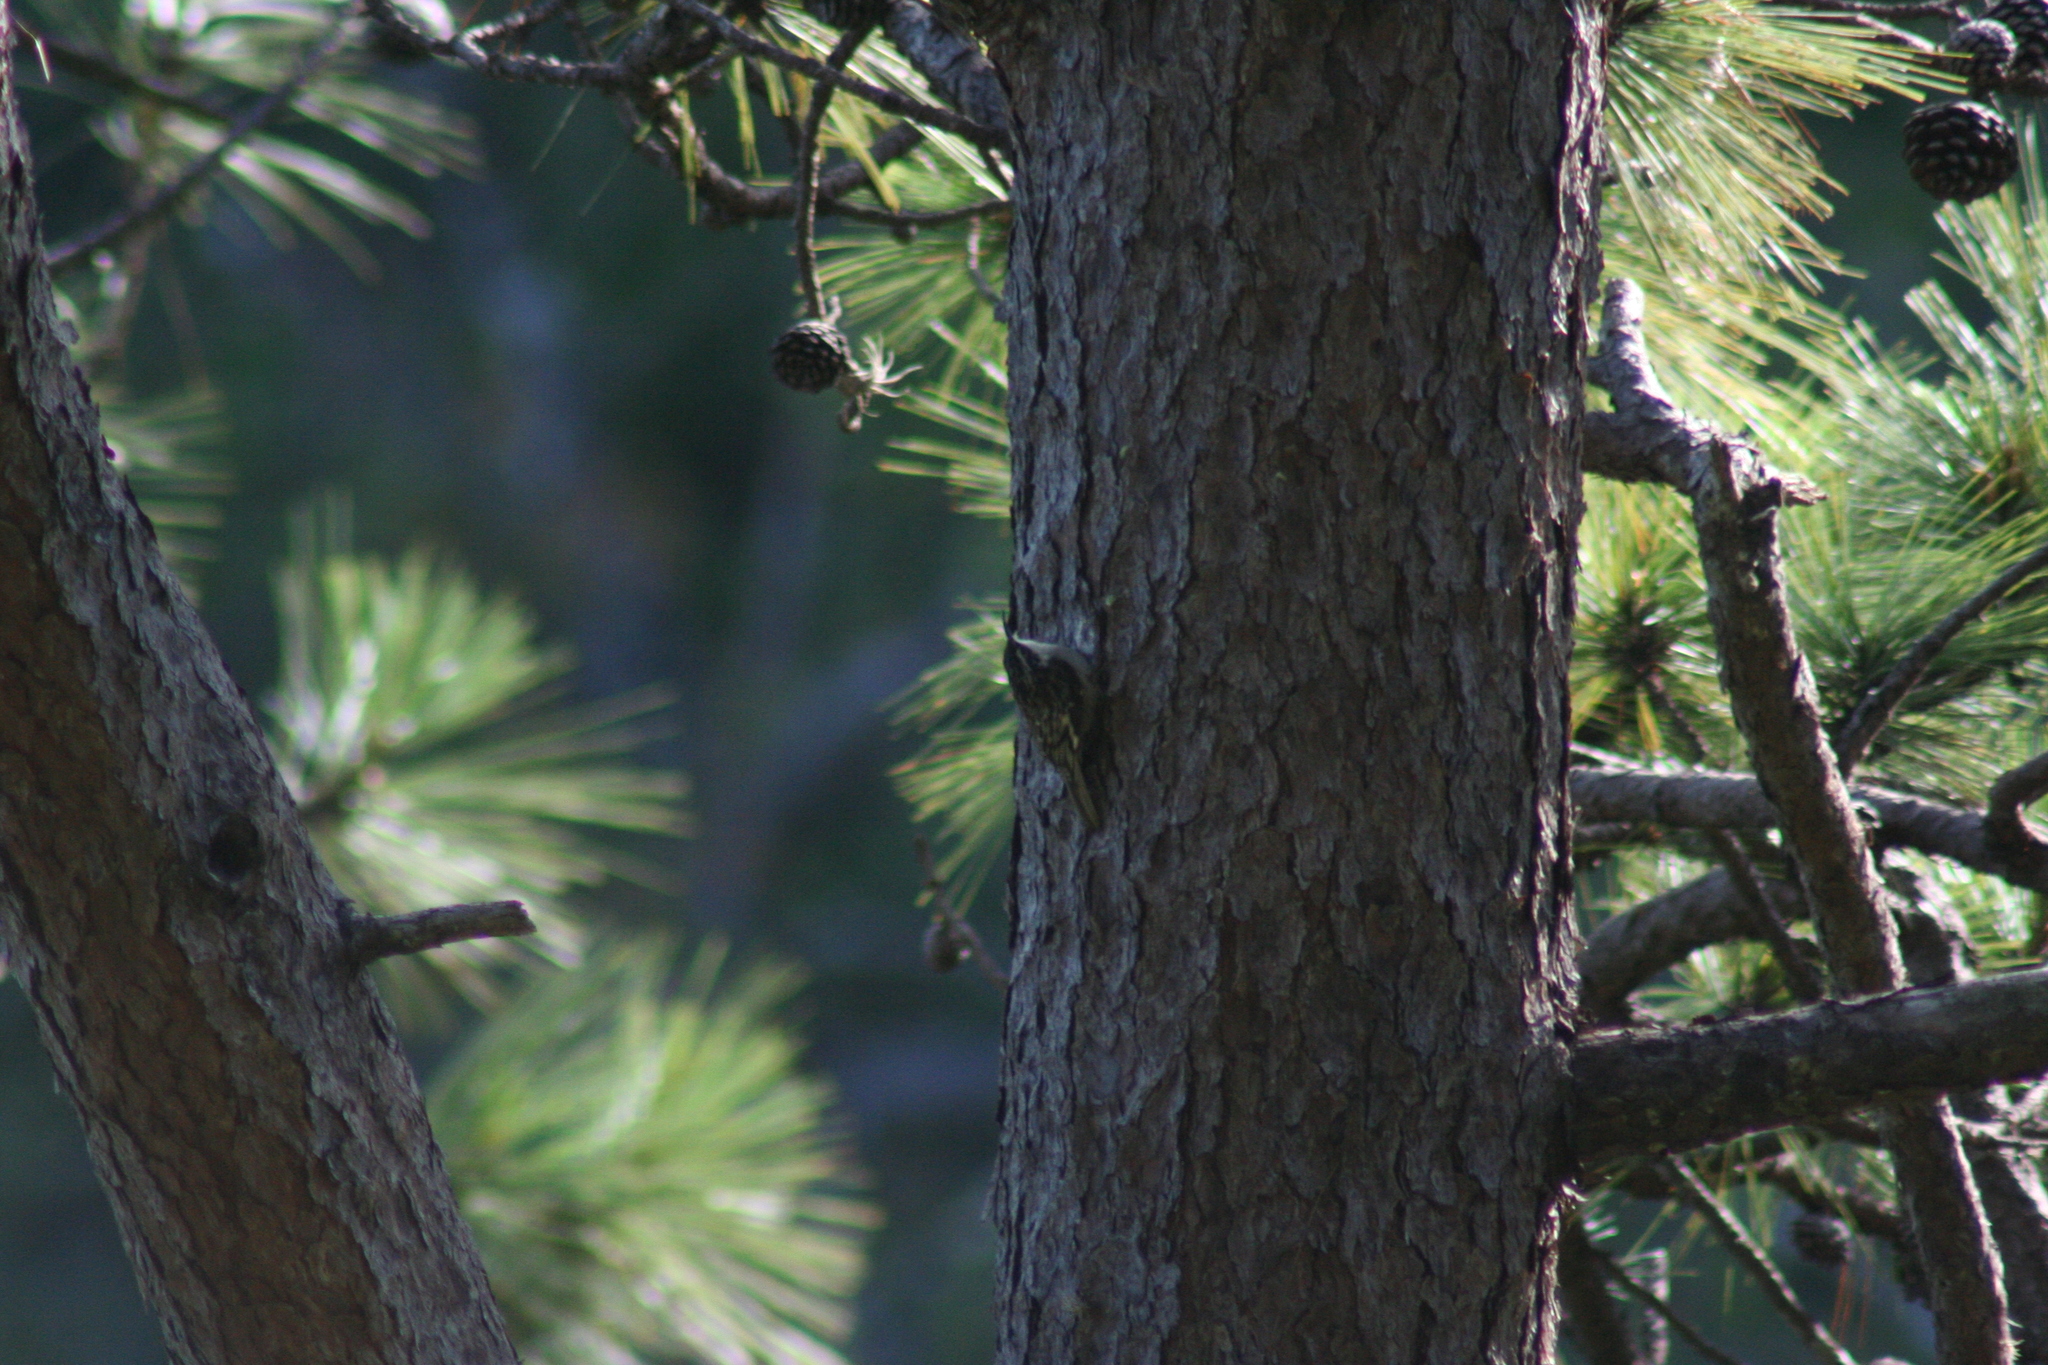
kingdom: Animalia
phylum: Chordata
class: Aves
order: Passeriformes
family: Certhiidae
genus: Certhia
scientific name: Certhia americana
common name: Brown creeper
